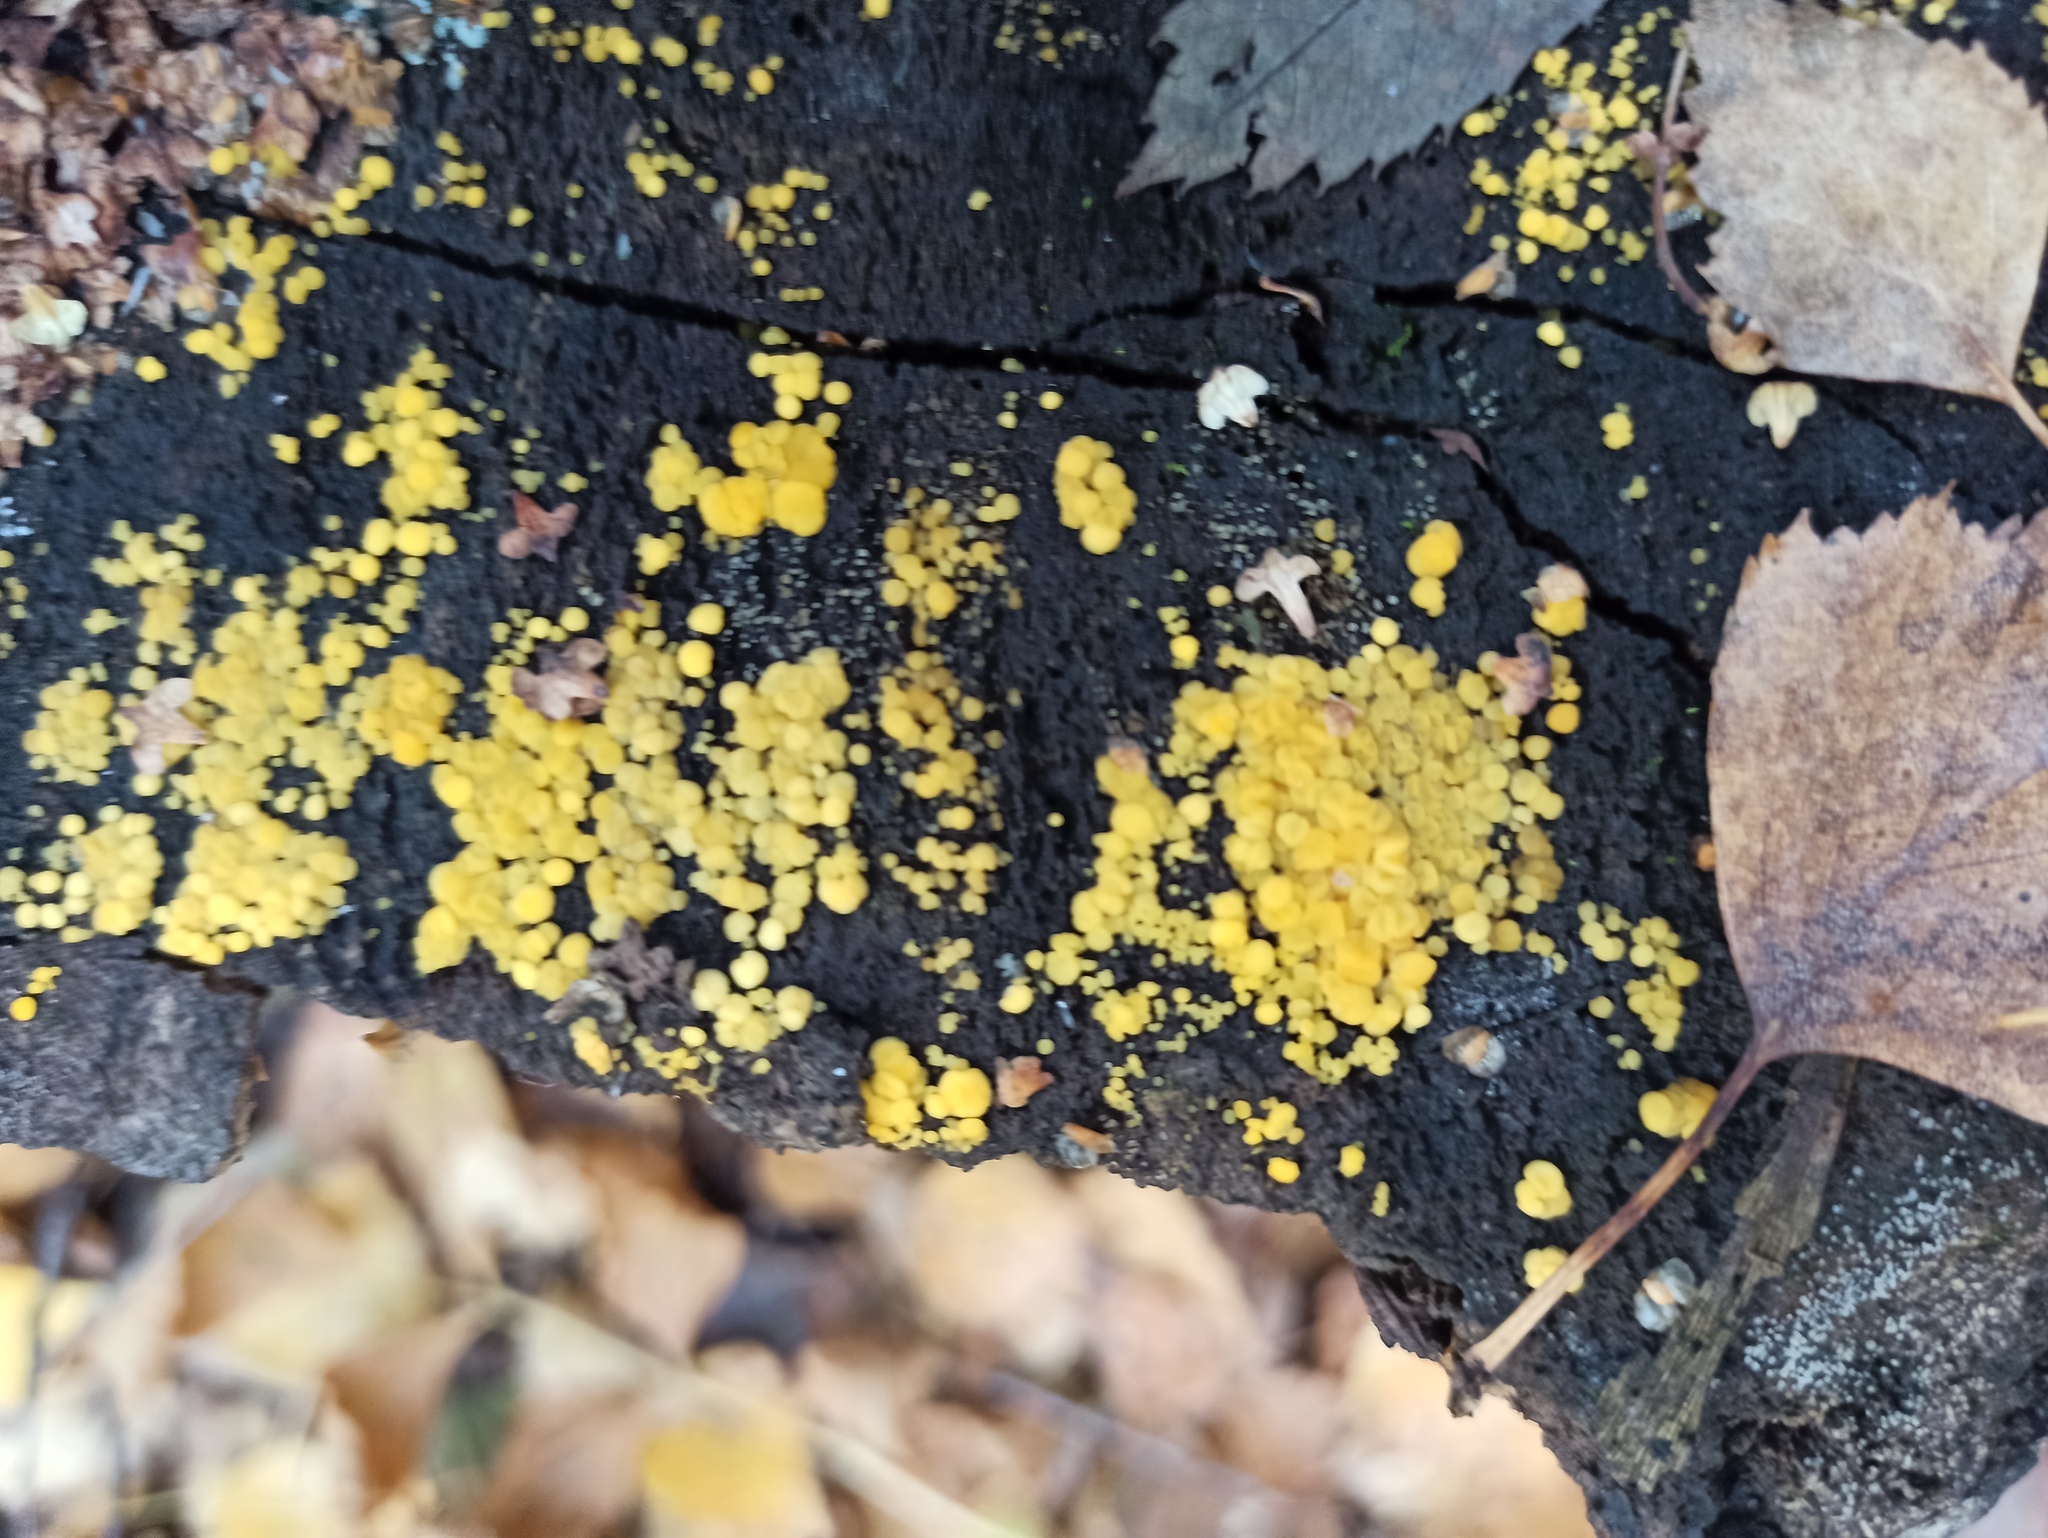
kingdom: Fungi
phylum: Ascomycota
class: Leotiomycetes
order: Helotiales
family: Pezizellaceae
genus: Calycina
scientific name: Calycina citrina
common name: Yellow fairy cups
